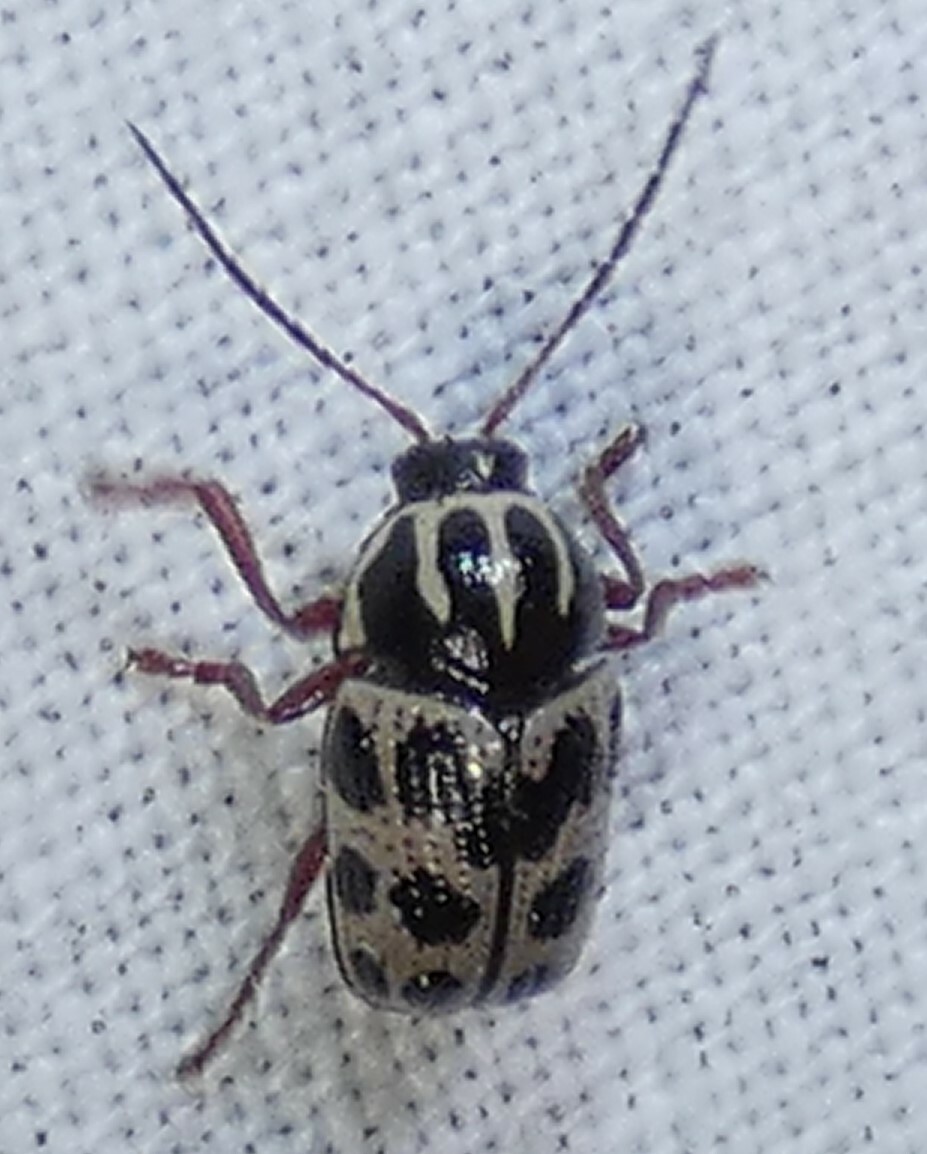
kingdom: Animalia
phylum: Arthropoda
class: Insecta
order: Coleoptera
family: Chrysomelidae
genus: Cryptocephalus
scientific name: Cryptocephalus bivius
